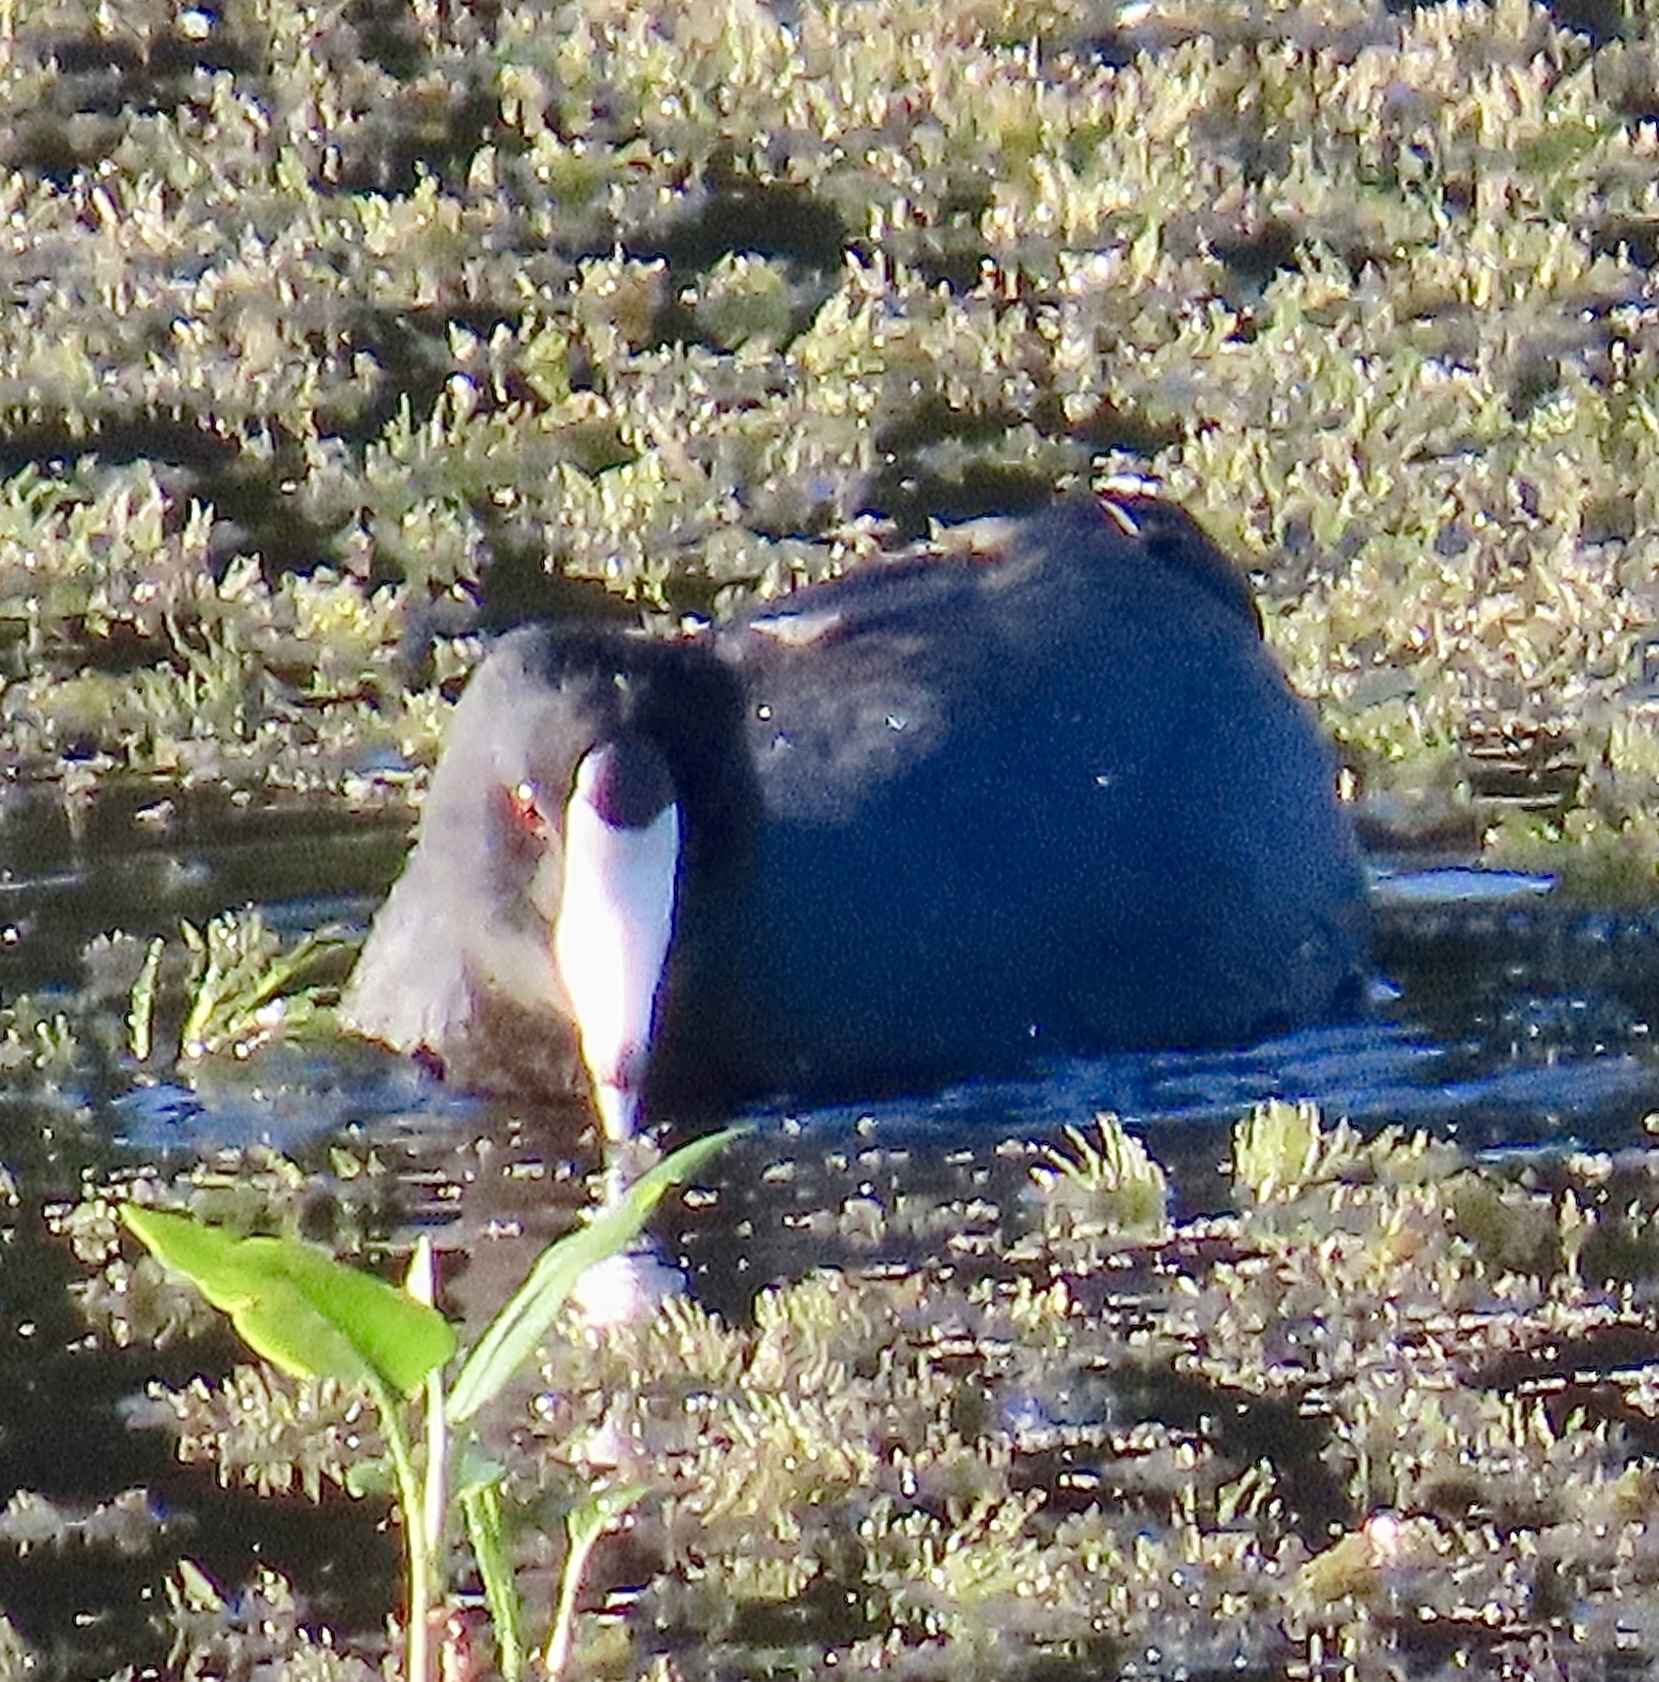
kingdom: Animalia
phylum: Chordata
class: Aves
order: Gruiformes
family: Rallidae
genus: Fulica
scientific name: Fulica americana
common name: American coot
